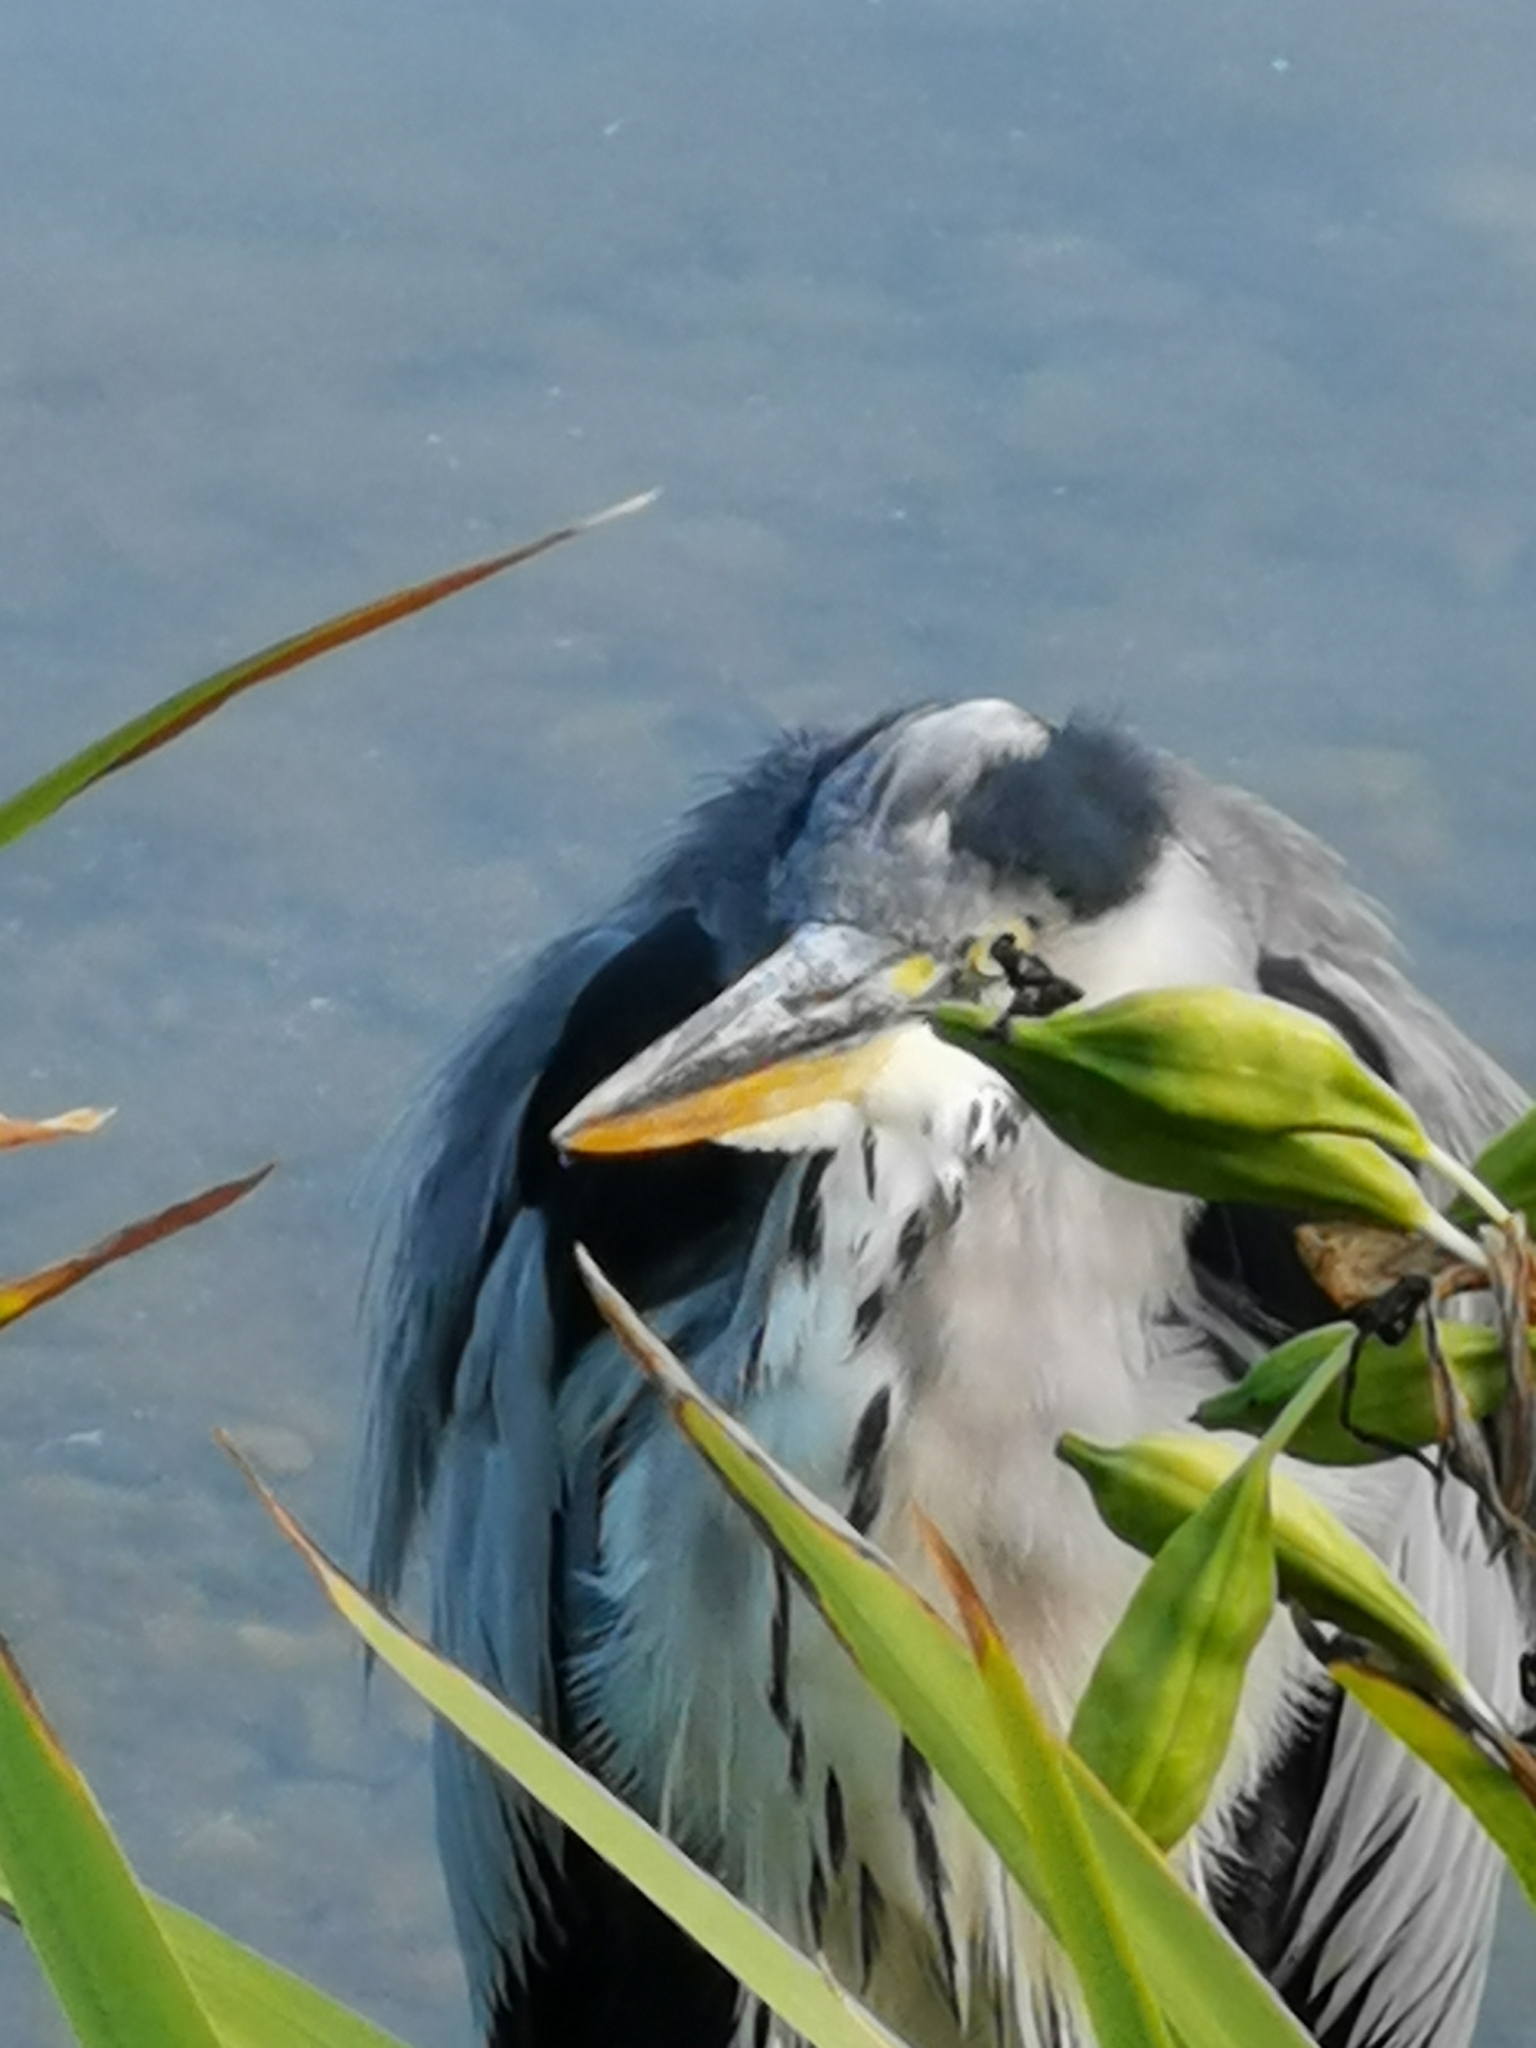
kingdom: Animalia
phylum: Chordata
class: Aves
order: Pelecaniformes
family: Ardeidae
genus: Ardea
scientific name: Ardea cinerea
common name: Grey heron
